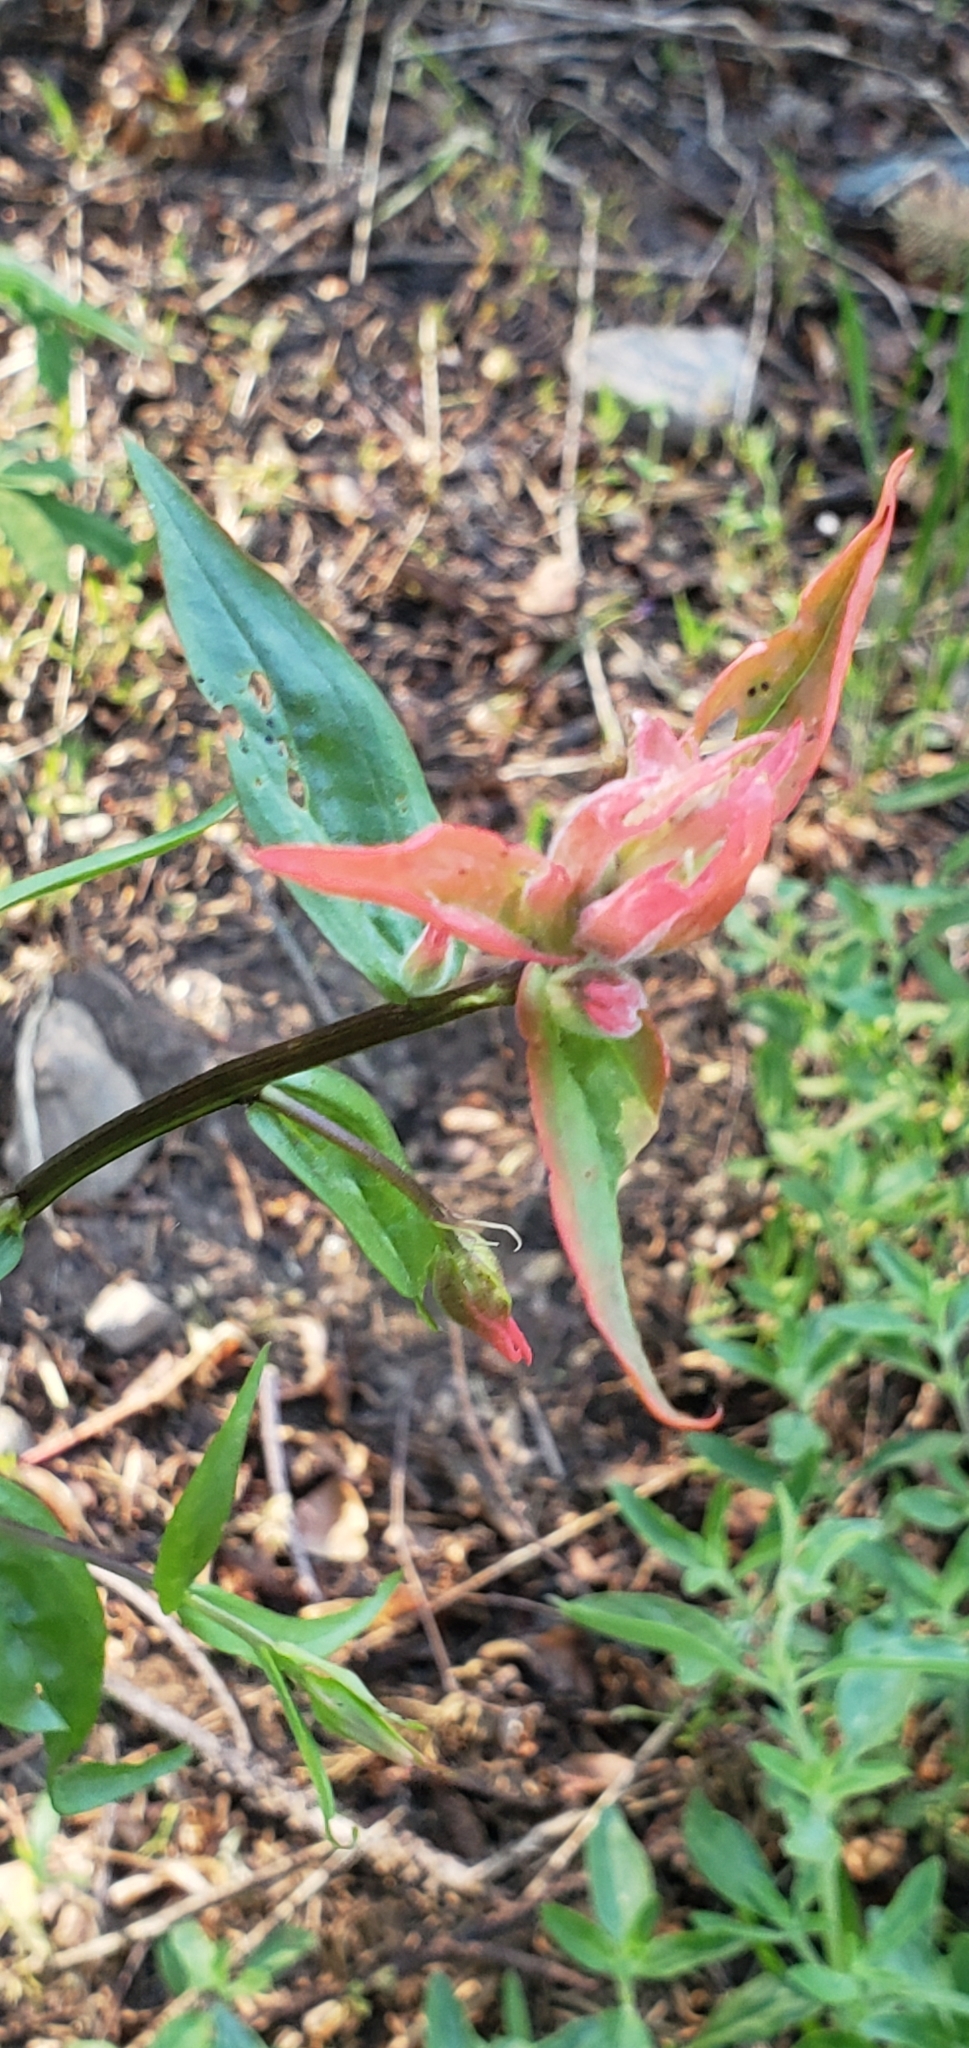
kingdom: Plantae
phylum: Tracheophyta
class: Magnoliopsida
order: Lamiales
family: Orobanchaceae
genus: Castilleja
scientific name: Castilleja miniata
